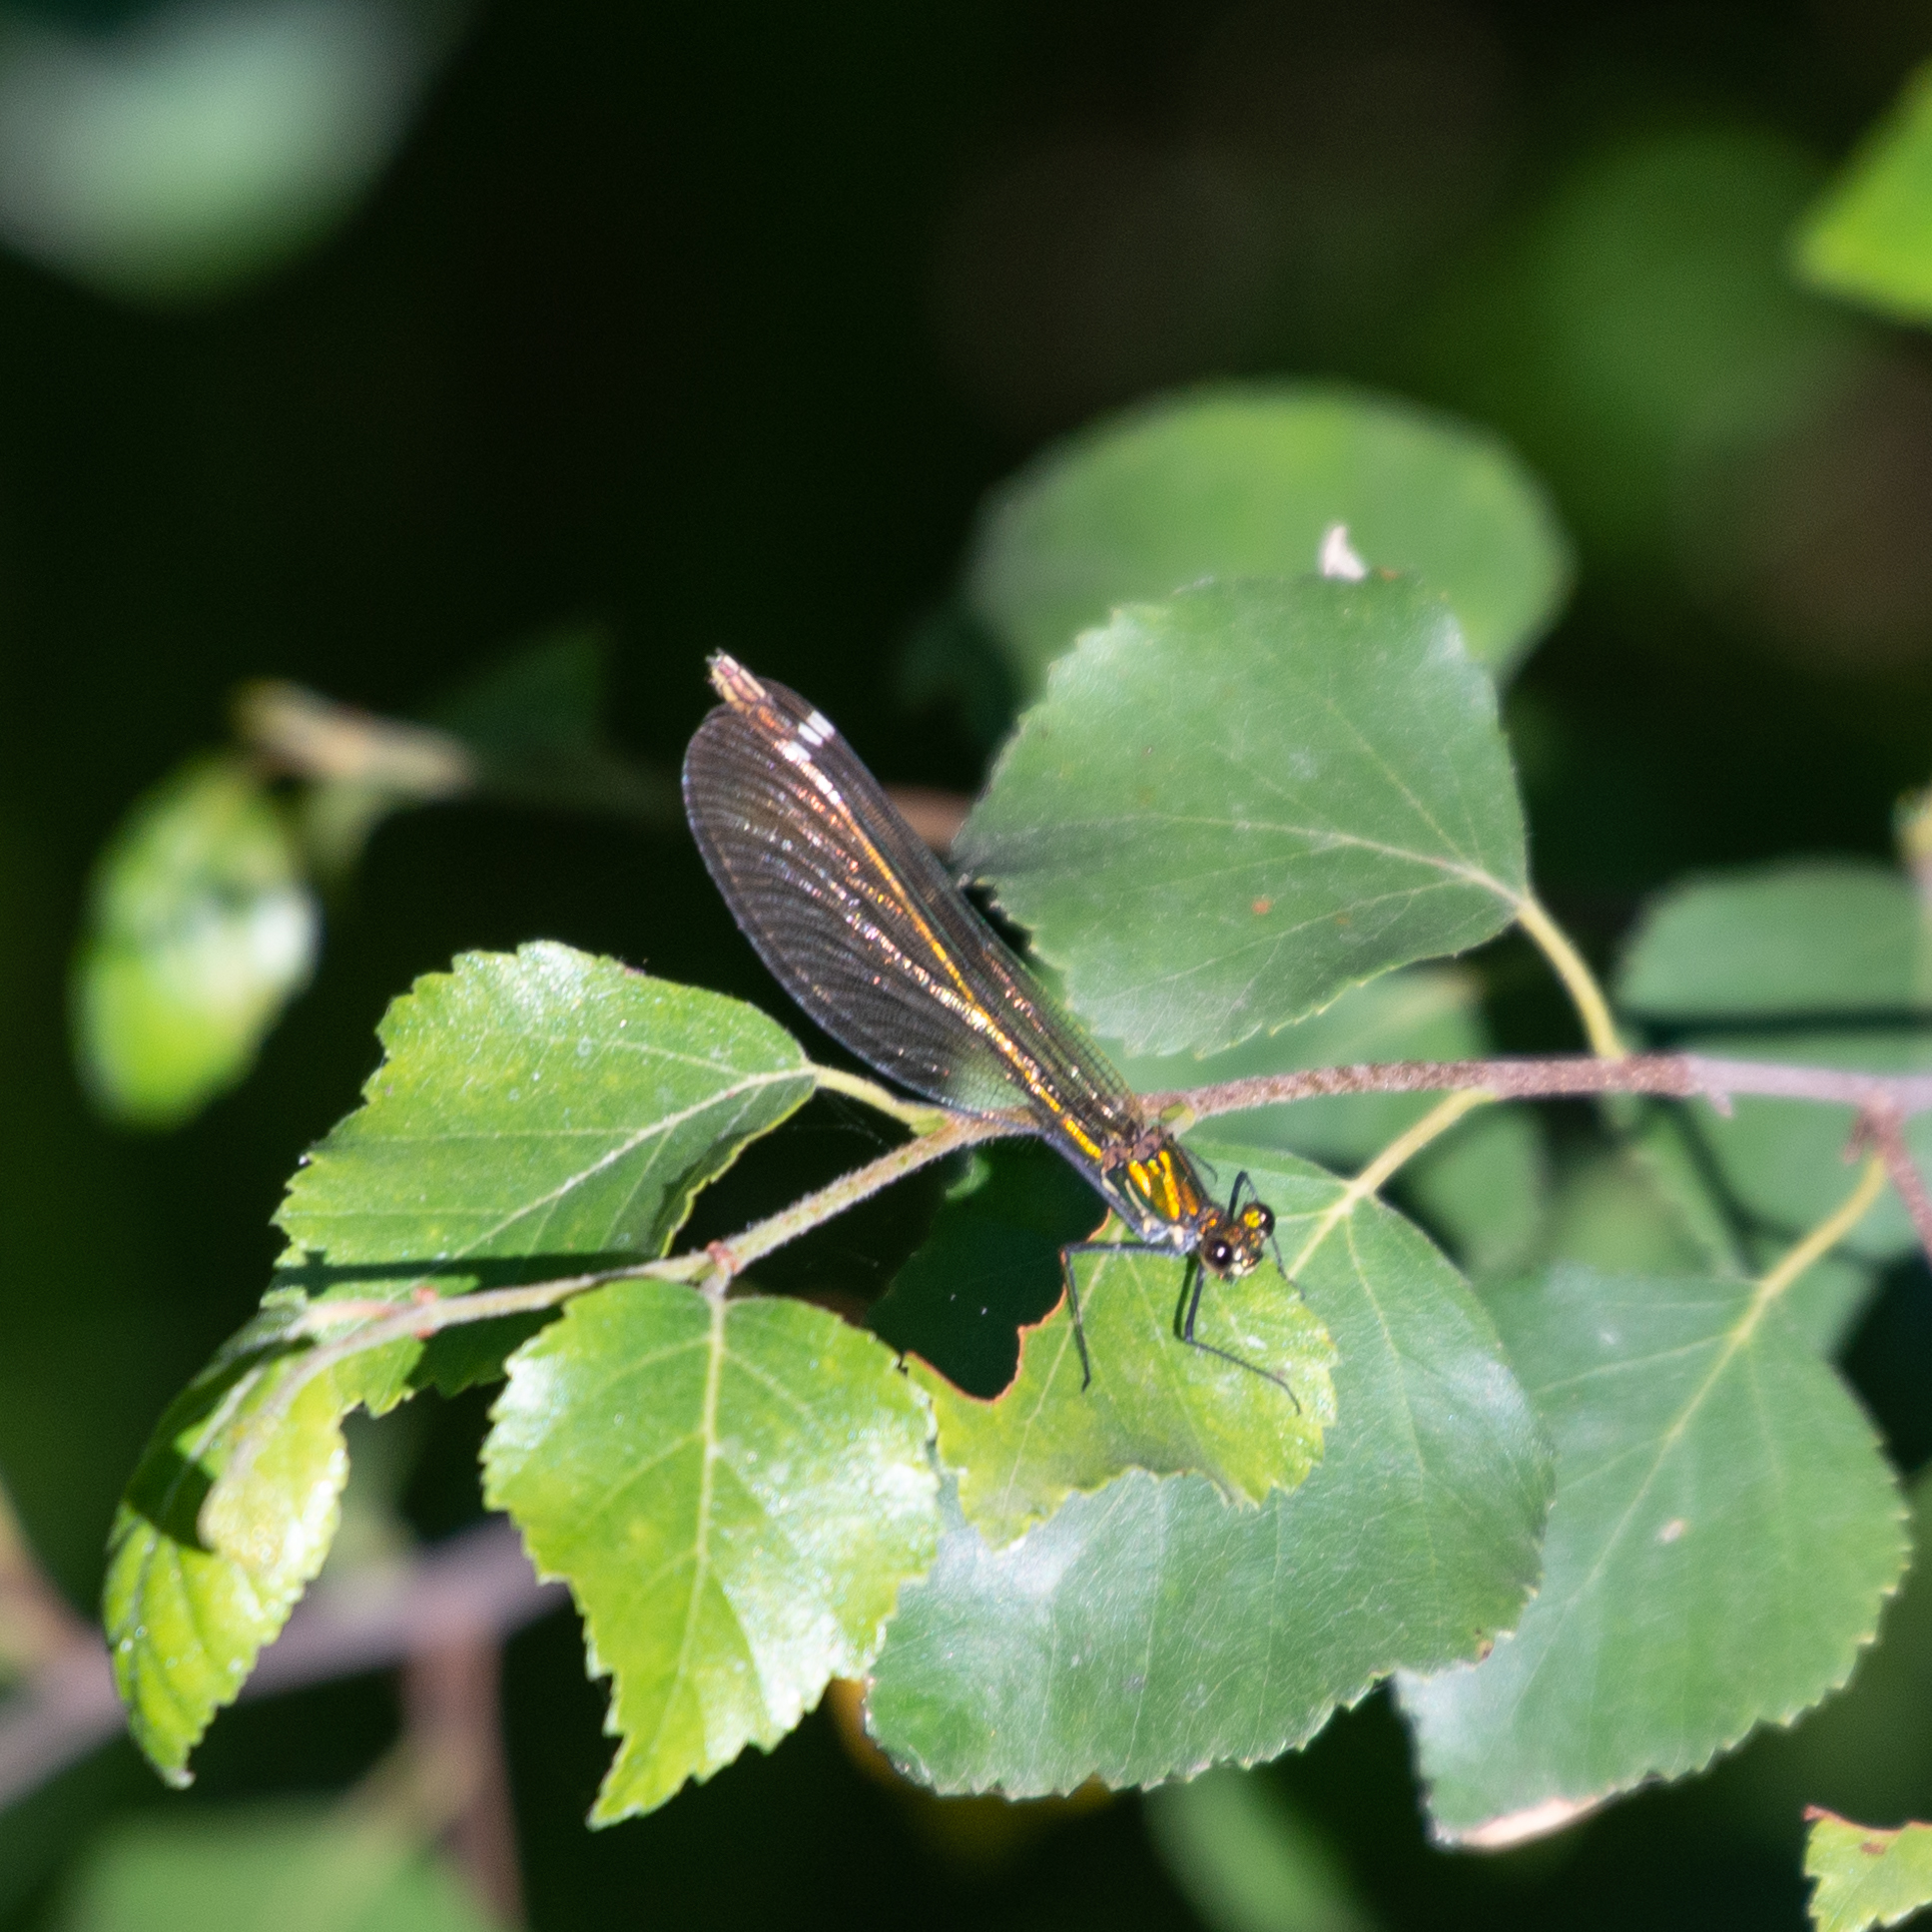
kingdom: Animalia
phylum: Arthropoda
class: Insecta
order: Odonata
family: Calopterygidae
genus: Calopteryx
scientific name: Calopteryx virgo
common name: Beautiful demoiselle
